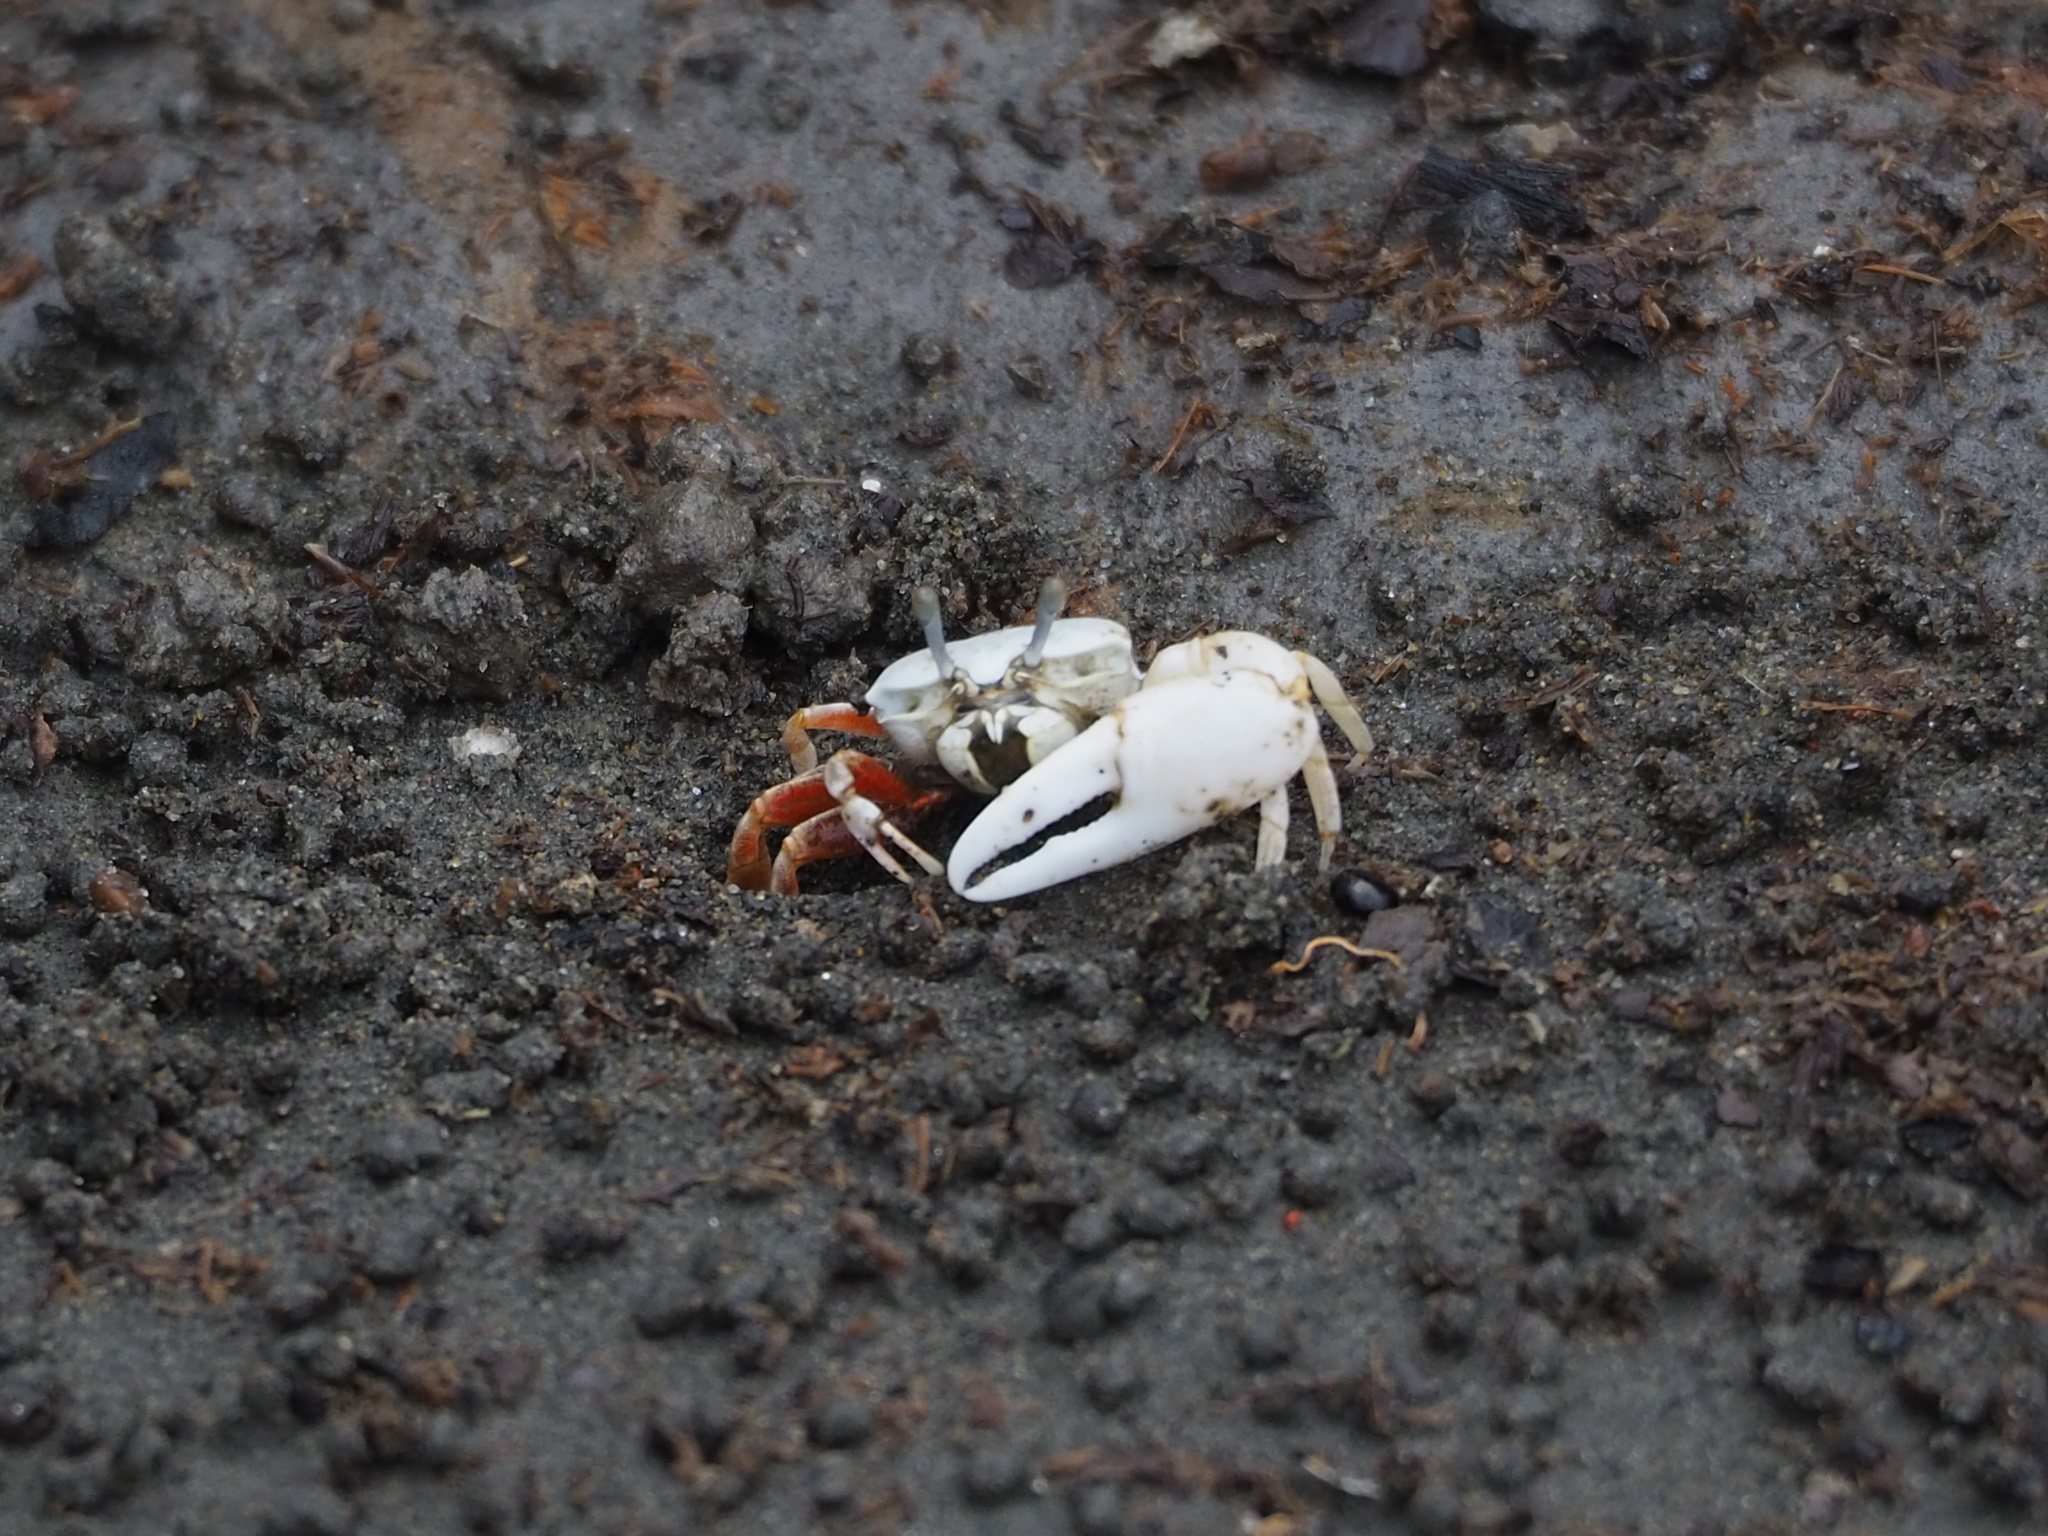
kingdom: Animalia
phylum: Arthropoda
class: Malacostraca
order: Decapoda
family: Ocypodidae
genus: Austruca
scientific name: Austruca lactea
